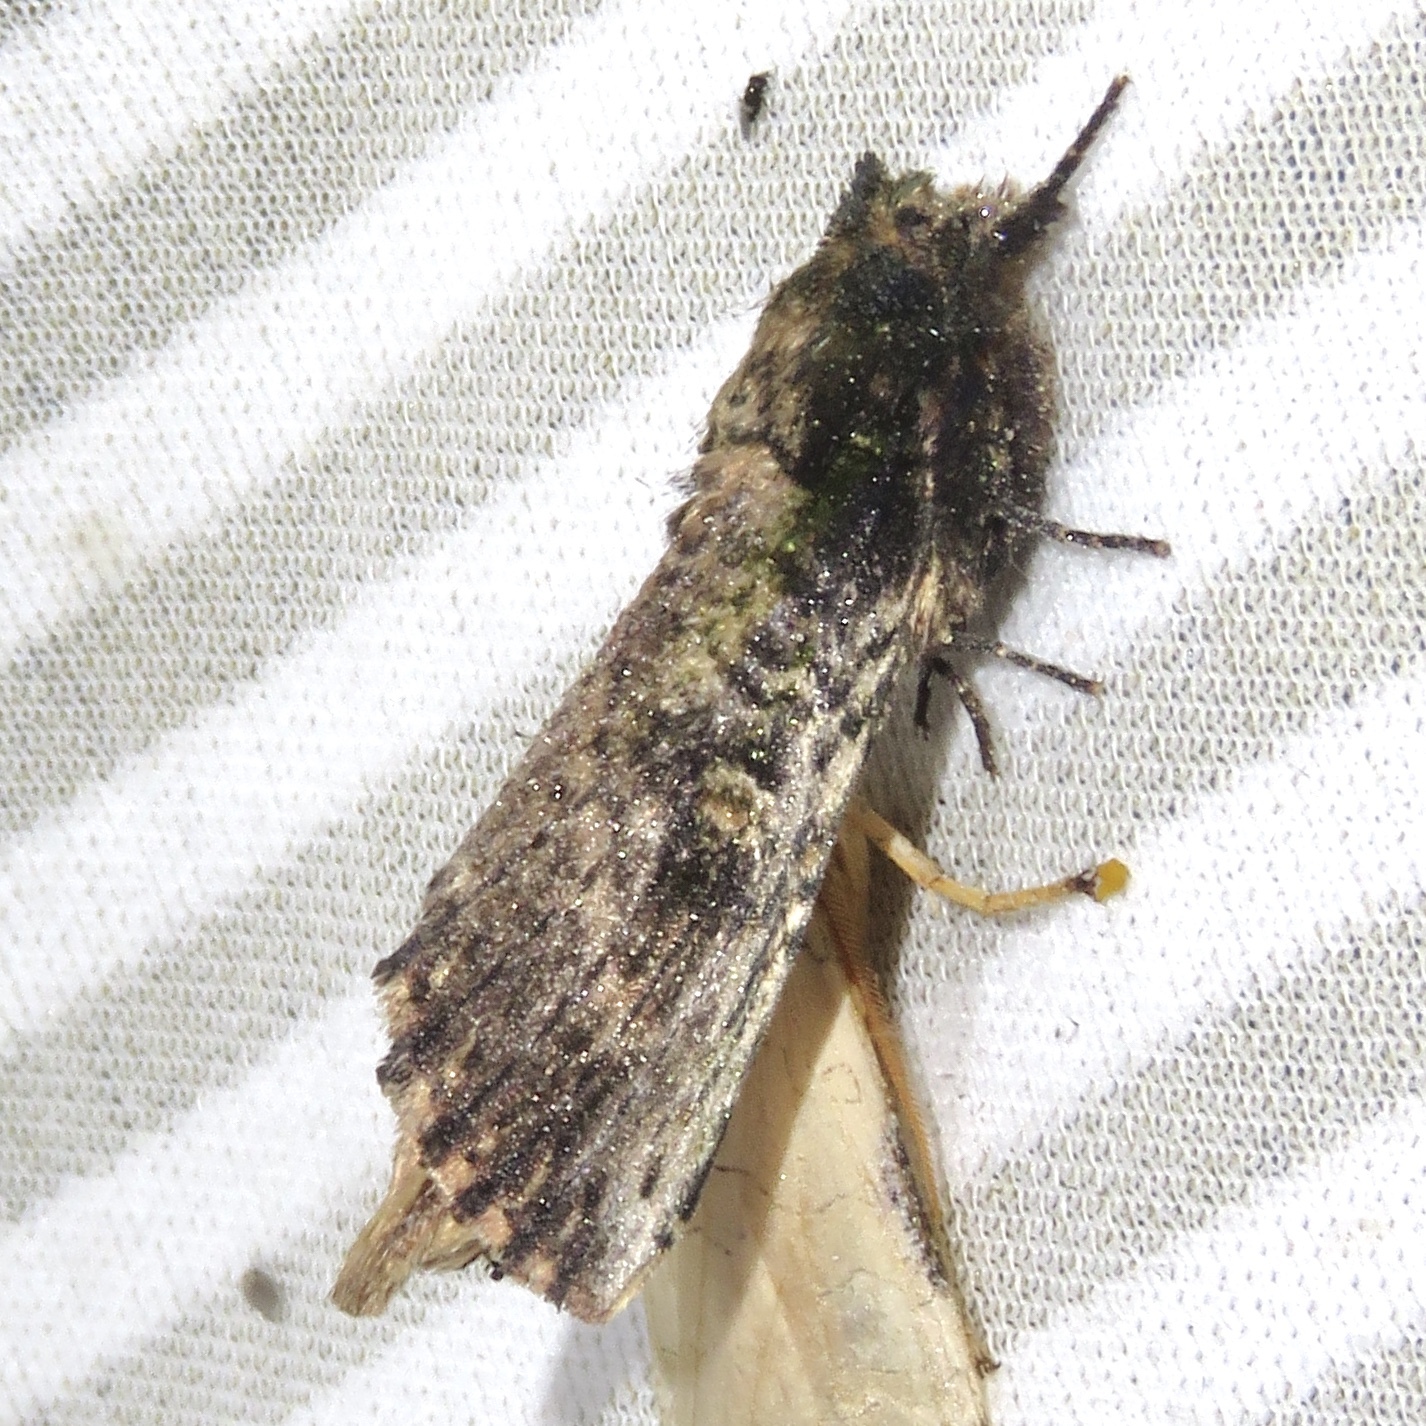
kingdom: Animalia
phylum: Arthropoda
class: Insecta
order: Lepidoptera
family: Notodontidae
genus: Schizura
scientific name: Schizura ipomaeae
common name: Morning-glory prominent
